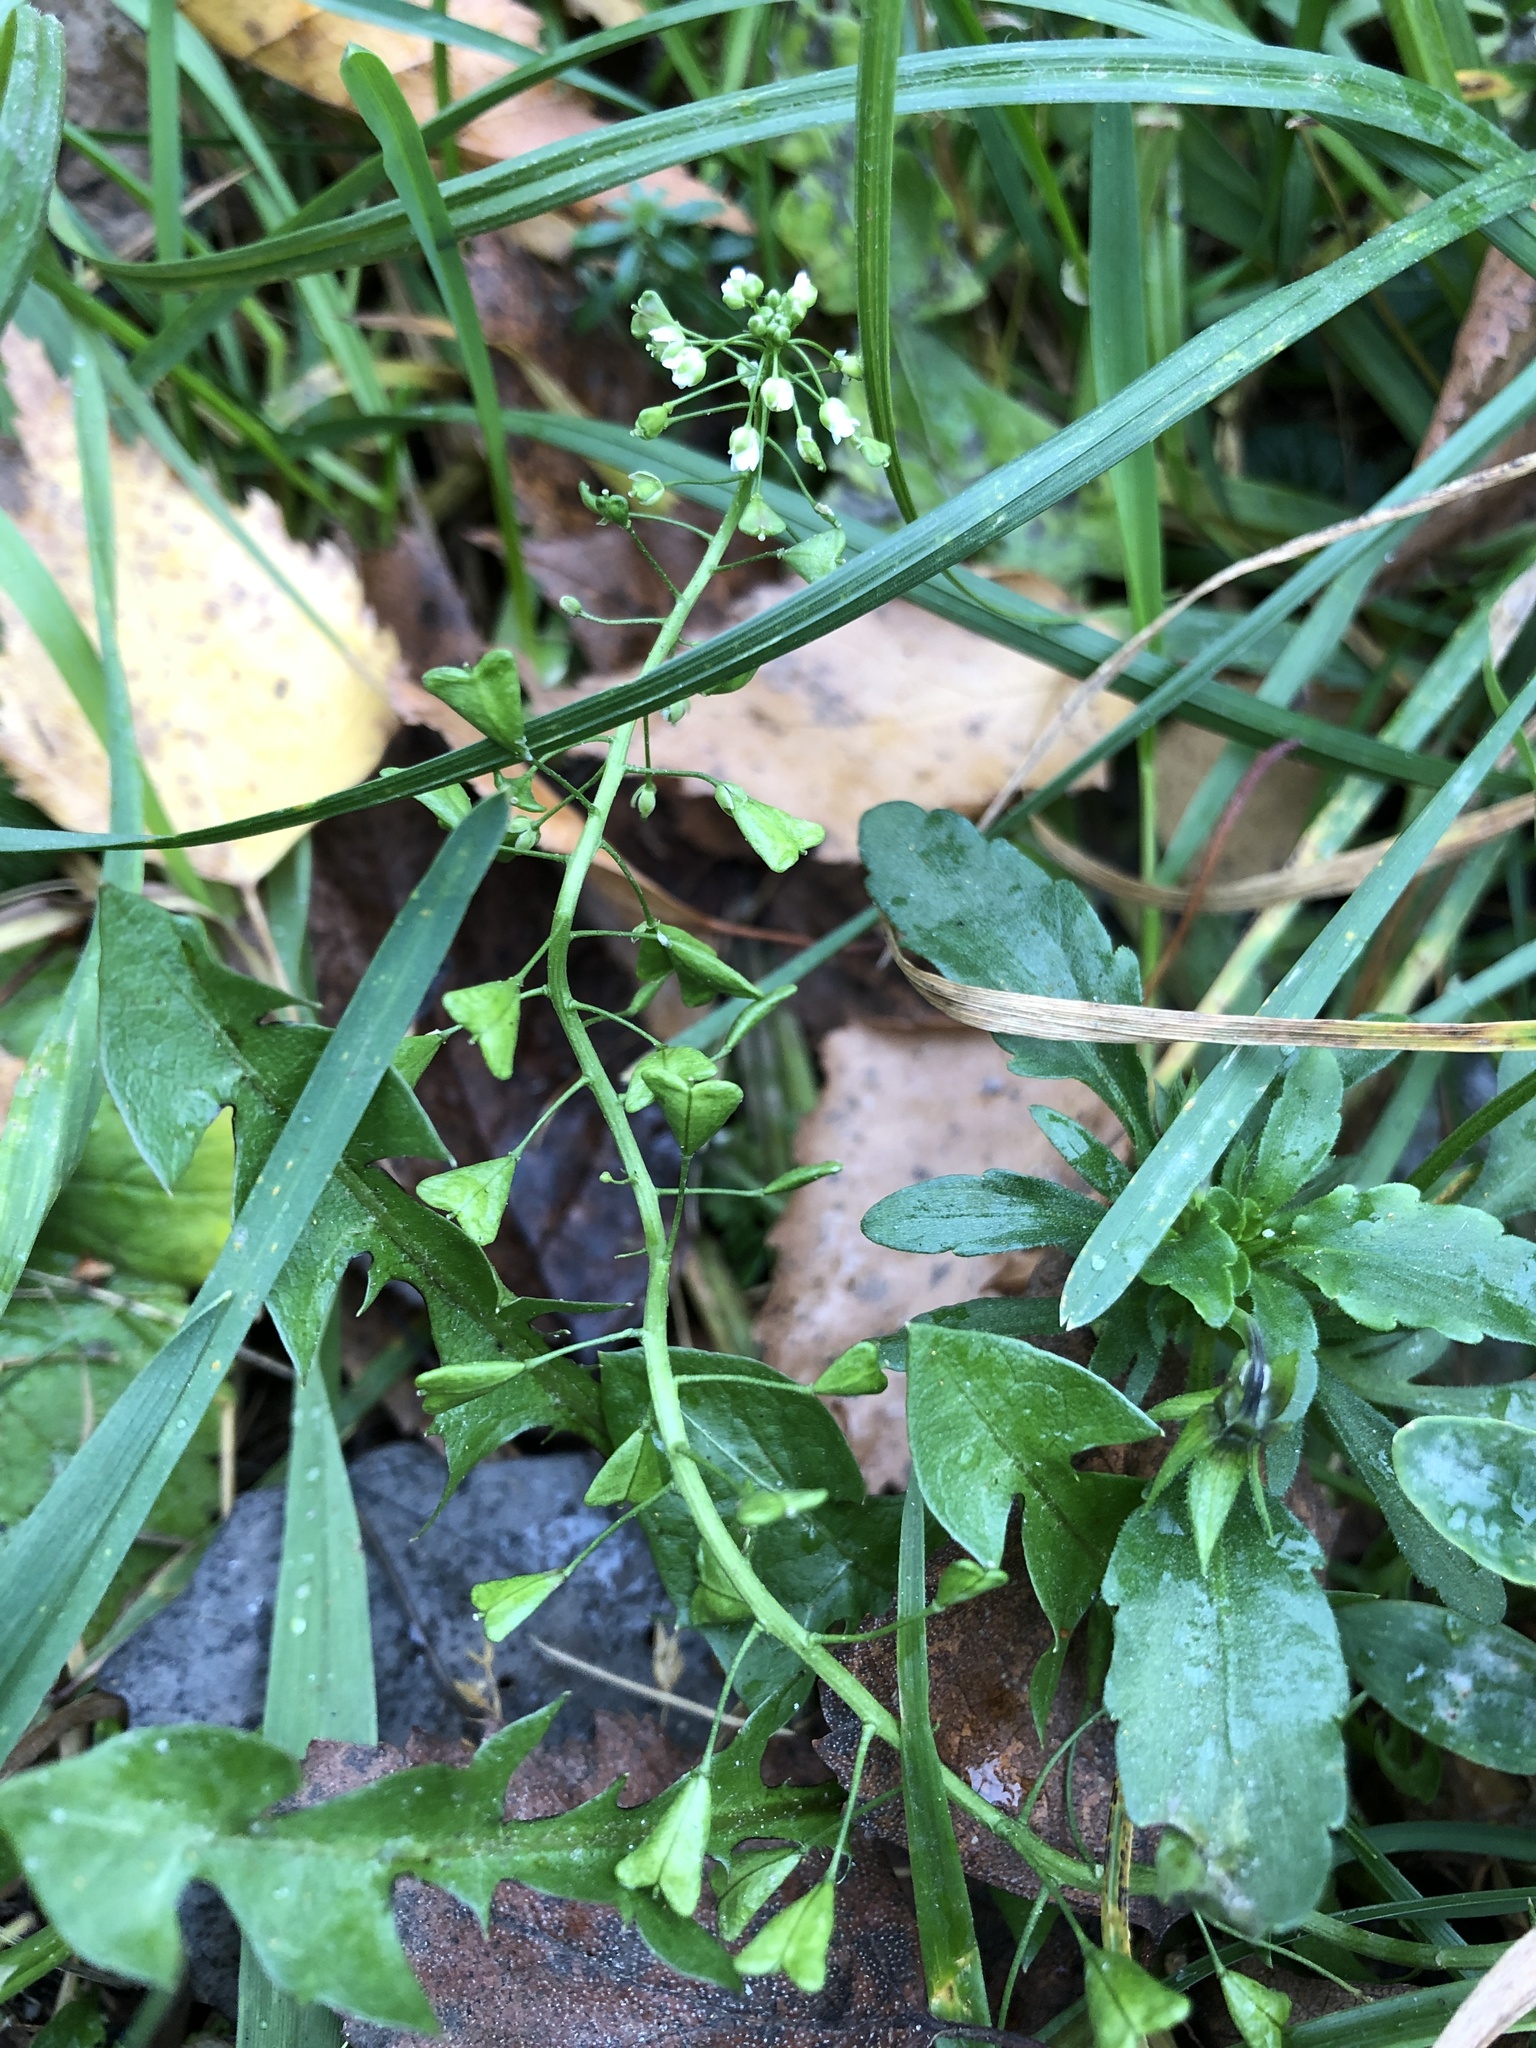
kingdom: Plantae
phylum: Tracheophyta
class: Magnoliopsida
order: Brassicales
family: Brassicaceae
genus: Capsella
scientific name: Capsella bursa-pastoris
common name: Shepherd's purse
